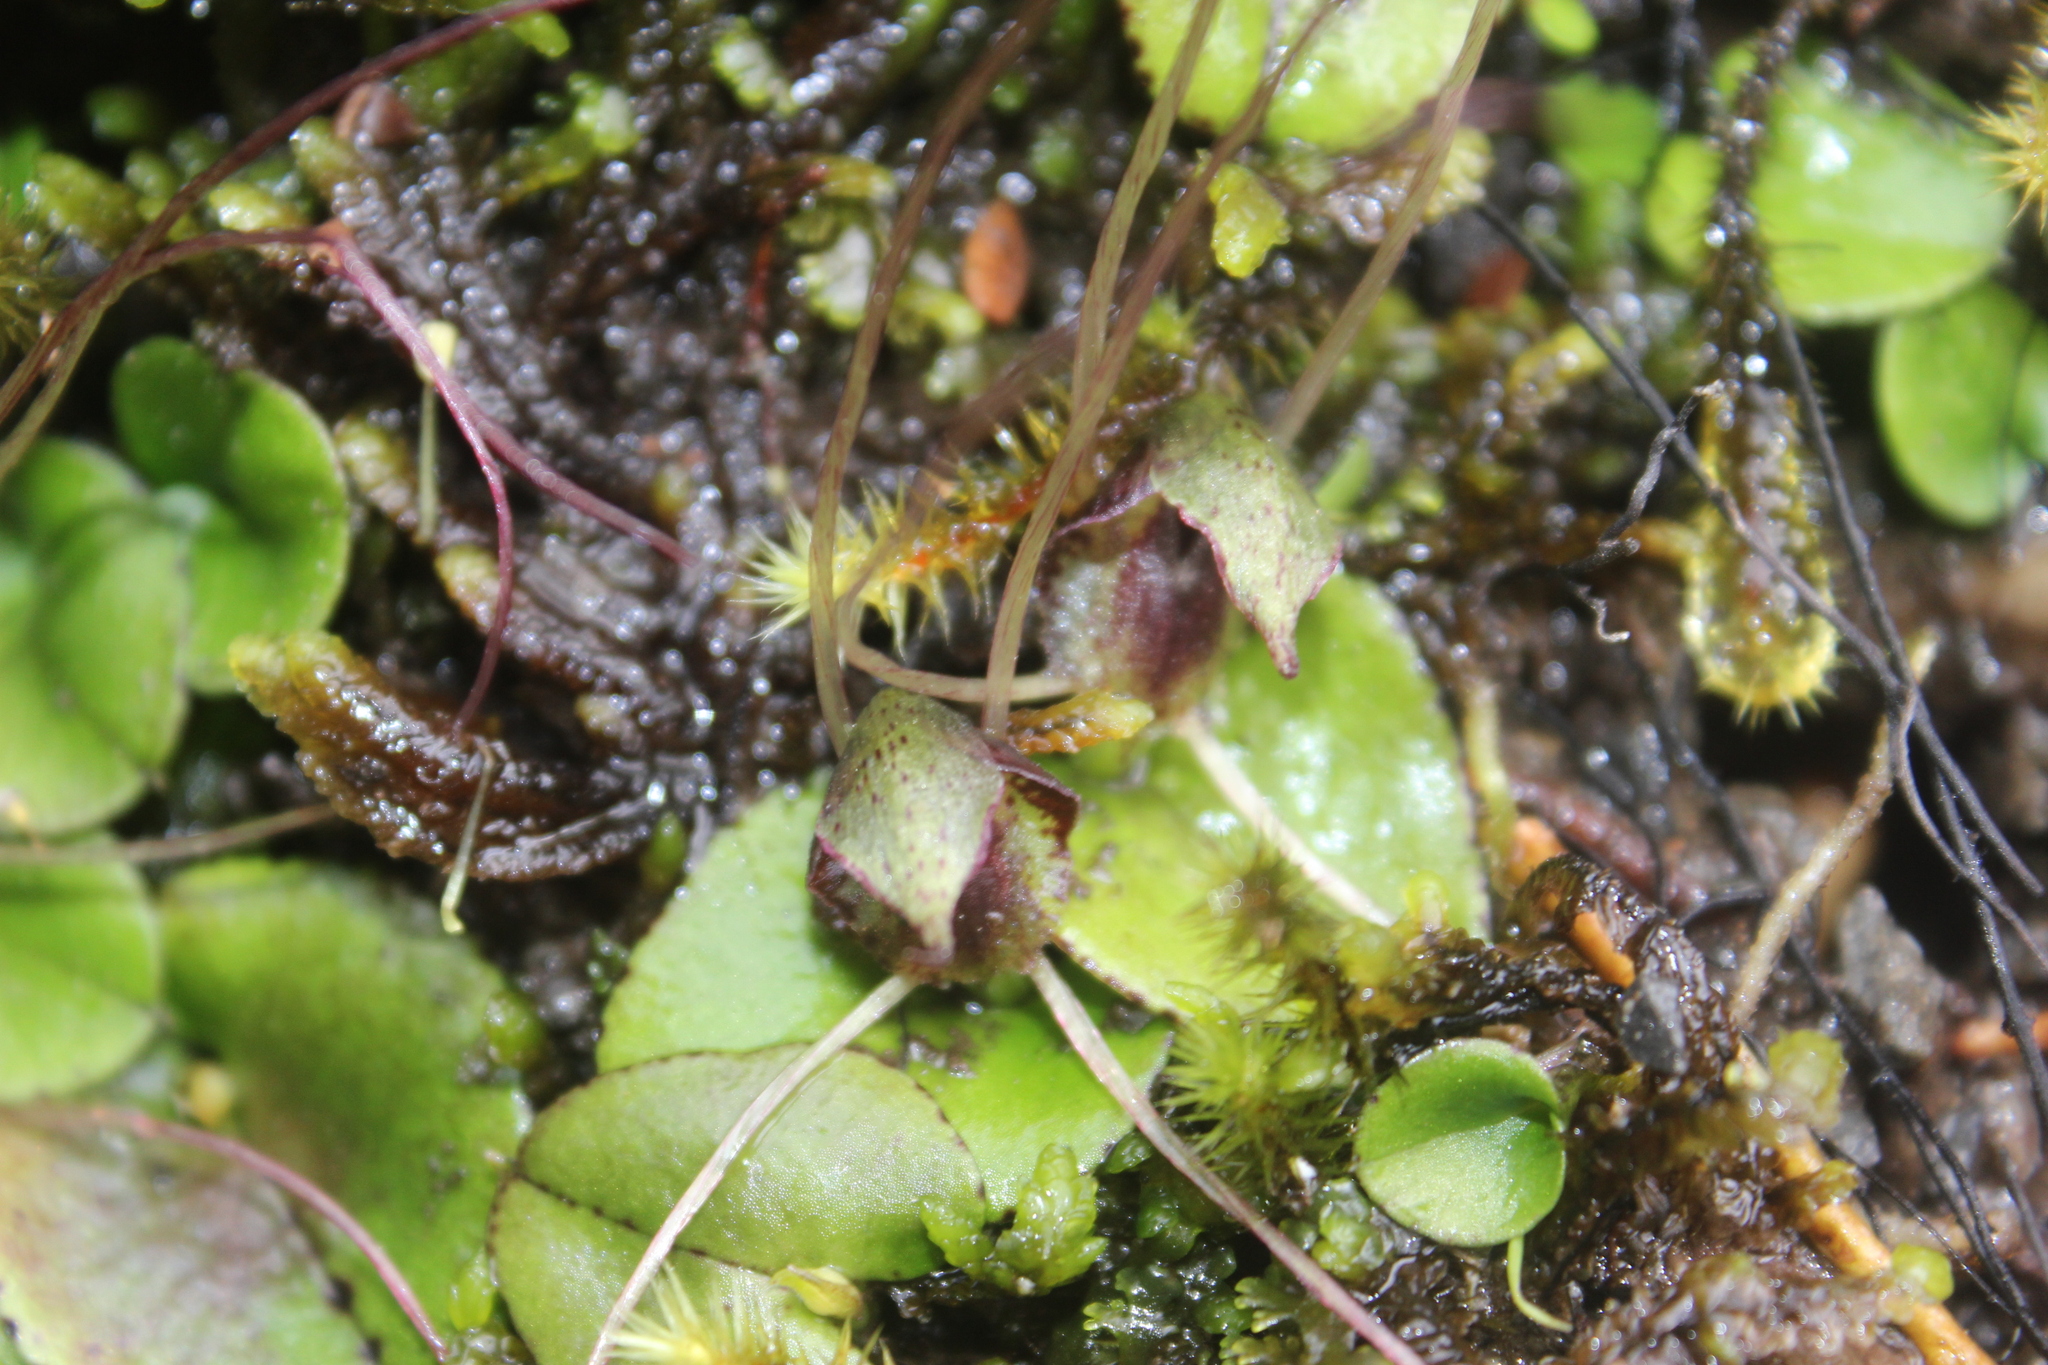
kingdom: Plantae
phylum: Tracheophyta
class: Liliopsida
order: Asparagales
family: Orchidaceae
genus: Corybas
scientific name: Corybas hatchii
